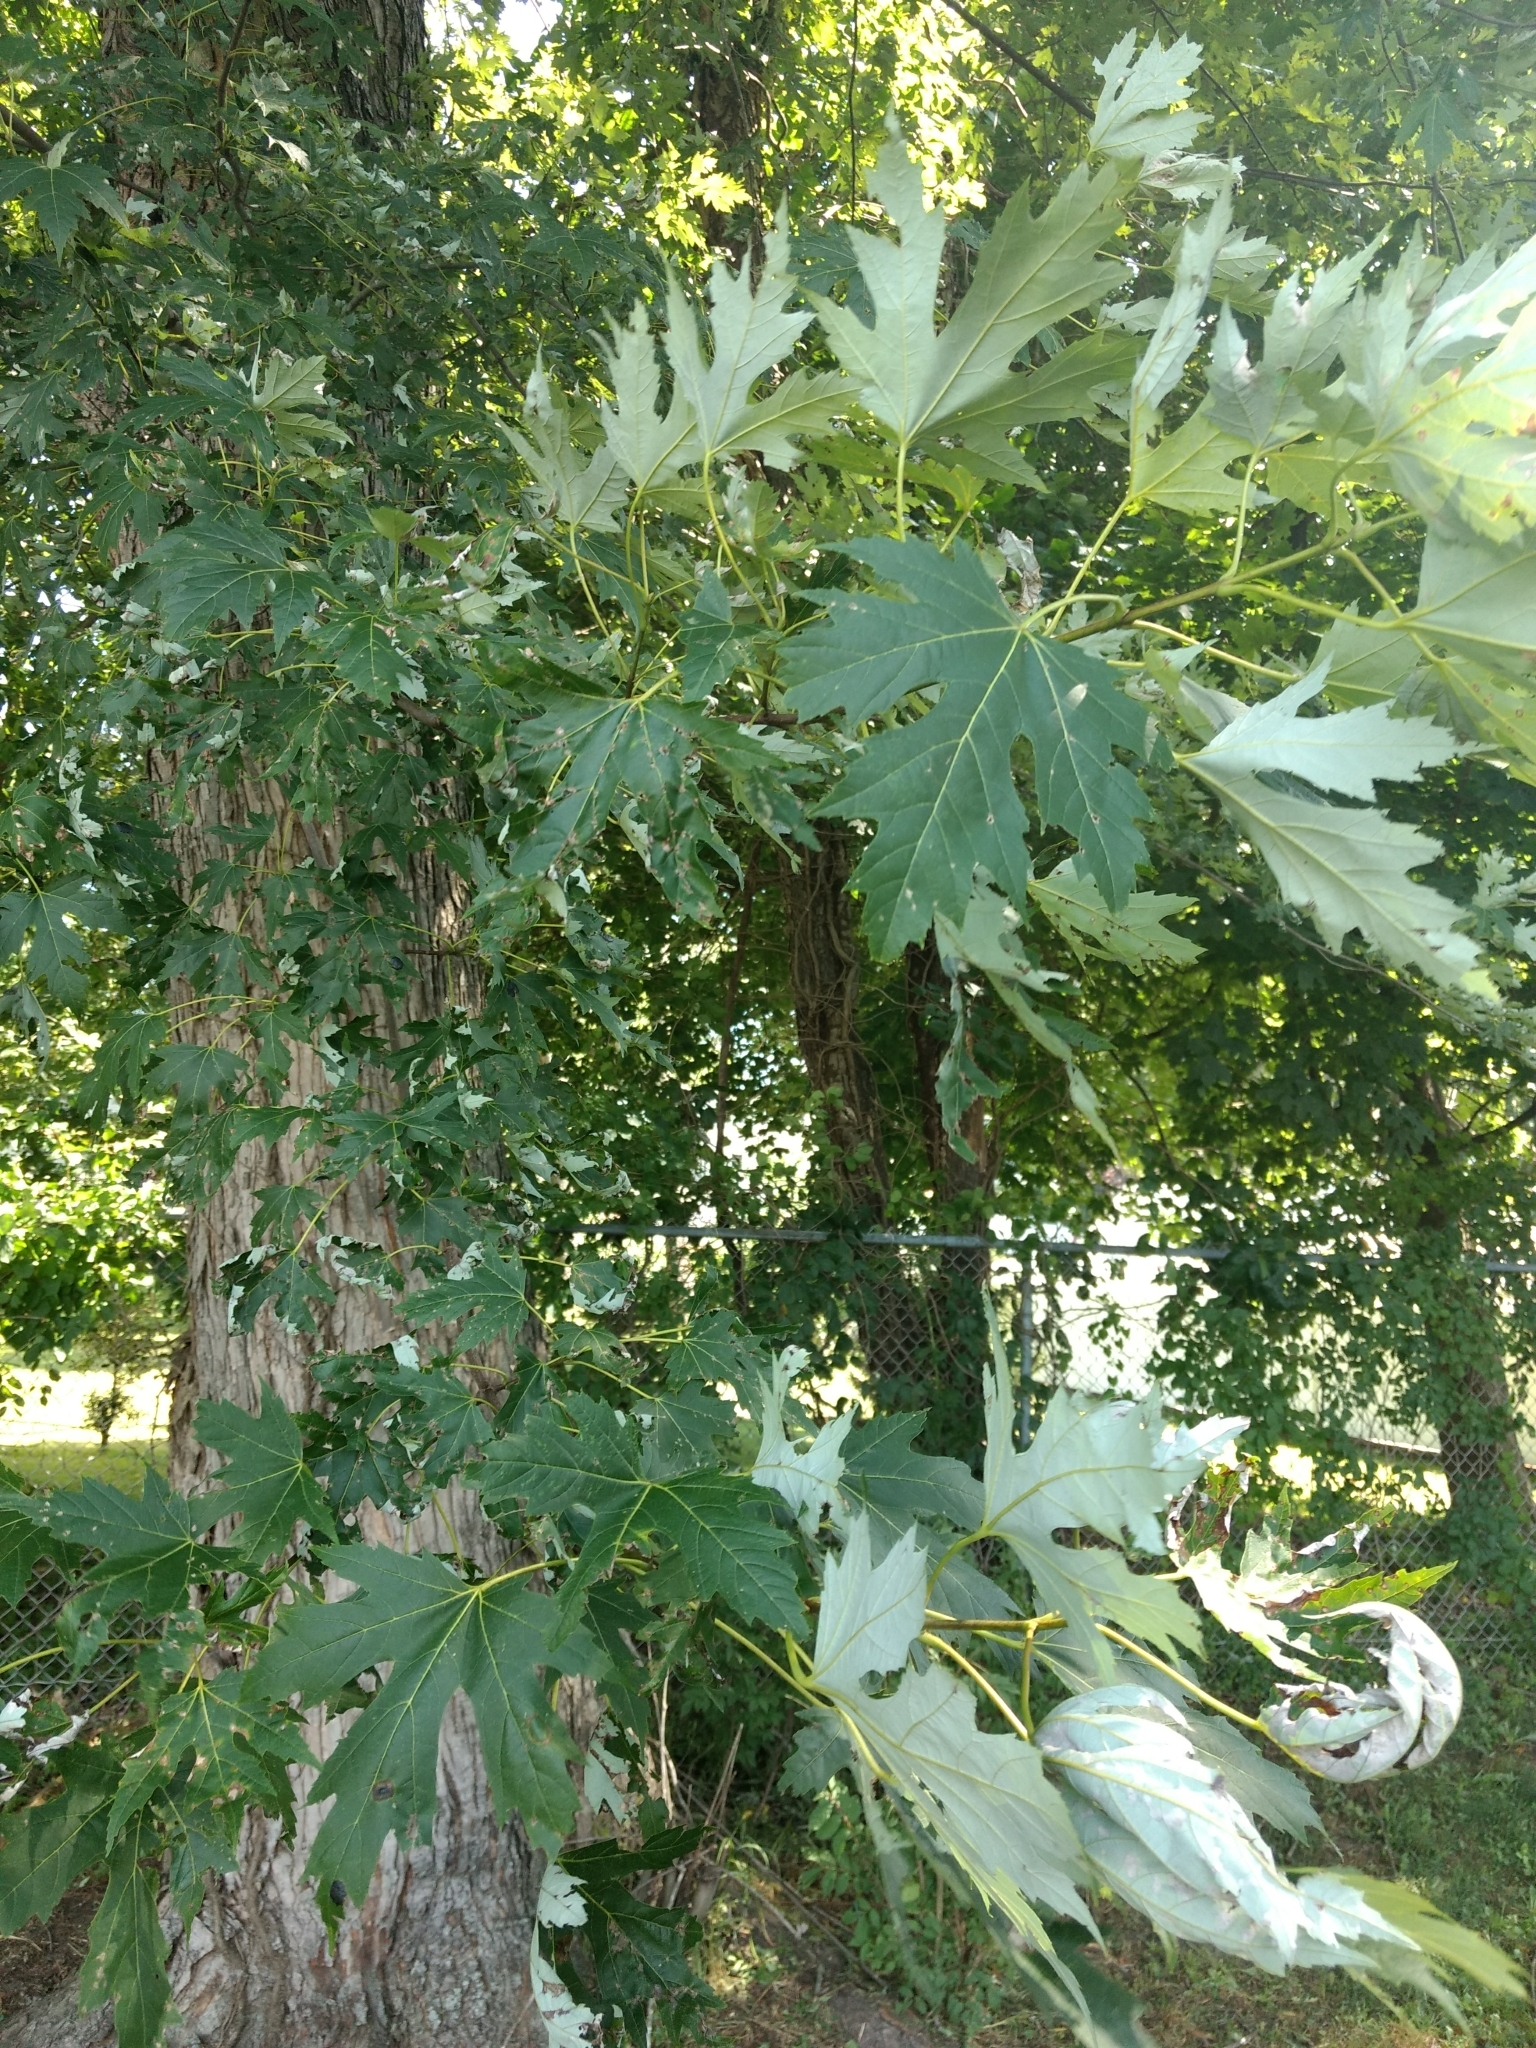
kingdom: Plantae
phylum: Tracheophyta
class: Magnoliopsida
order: Sapindales
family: Sapindaceae
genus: Acer
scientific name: Acer saccharinum
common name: Silver maple
